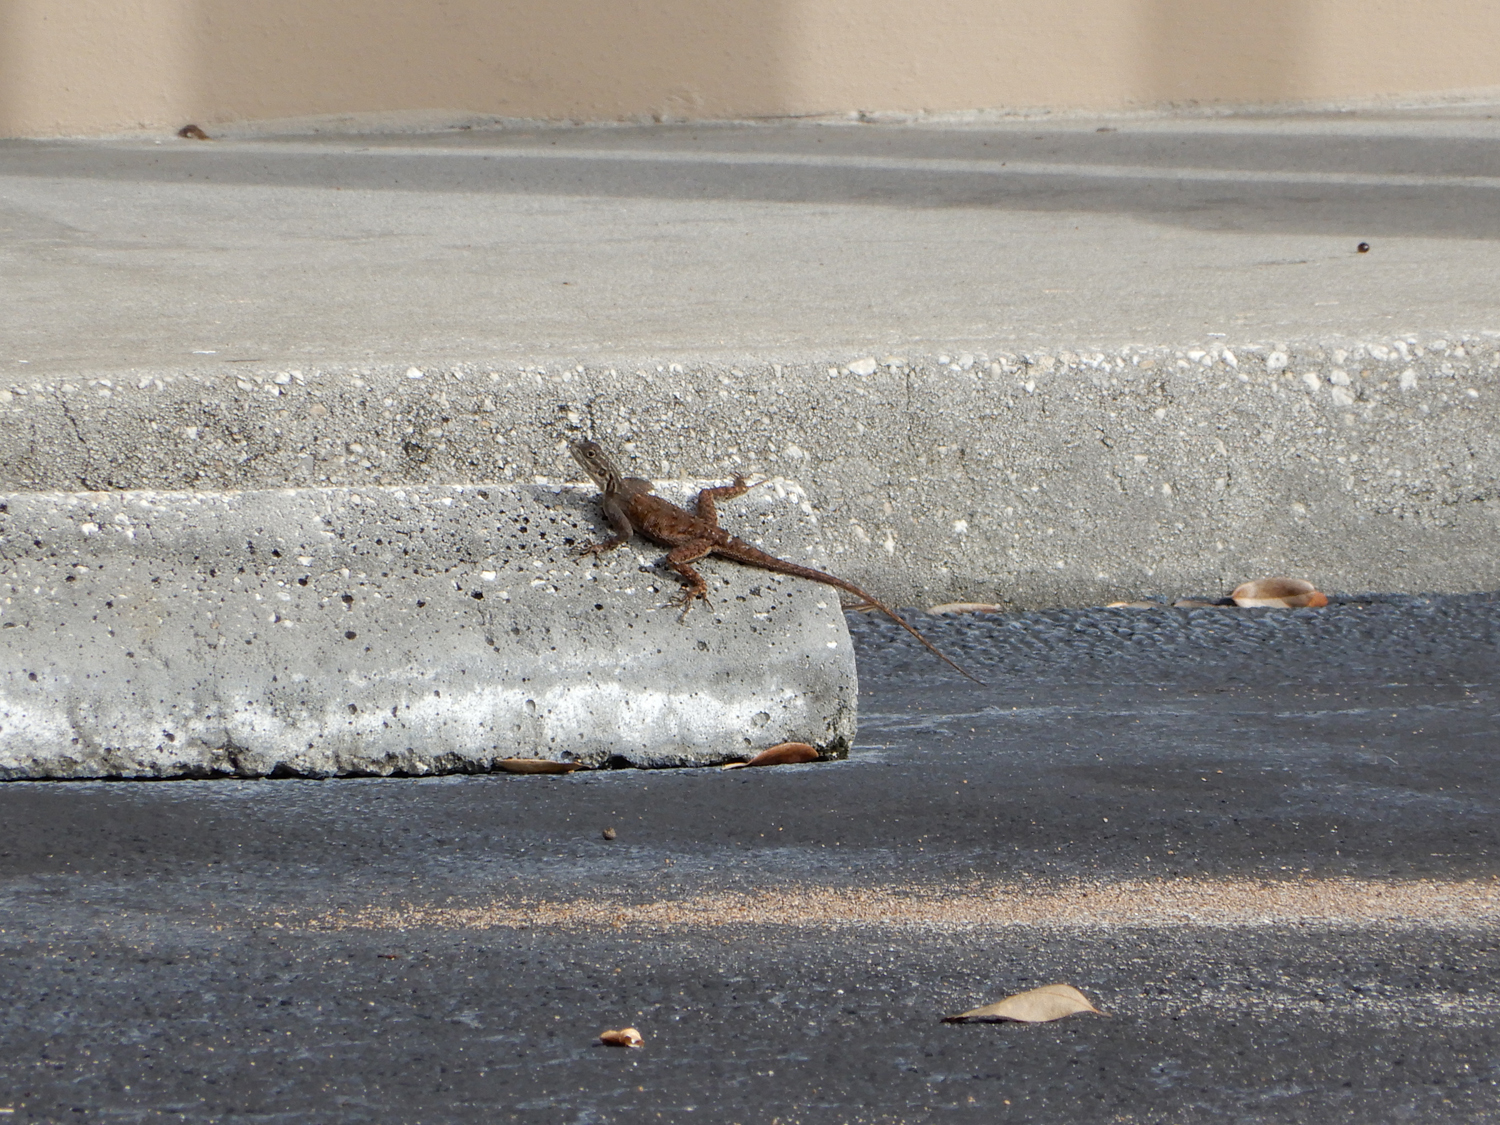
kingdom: Animalia
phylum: Chordata
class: Squamata
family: Agamidae
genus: Agama
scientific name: Agama picticauda
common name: Red-headed agama
